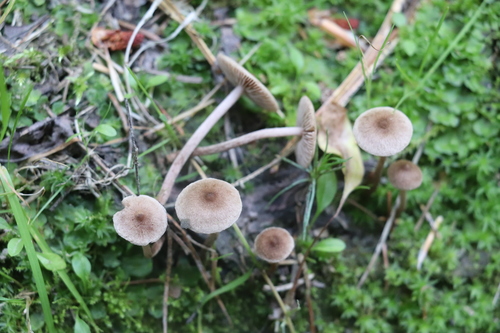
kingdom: Fungi
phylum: Basidiomycota
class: Agaricomycetes
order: Agaricales
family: Inocybaceae
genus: Inocybe
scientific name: Inocybe lacera
